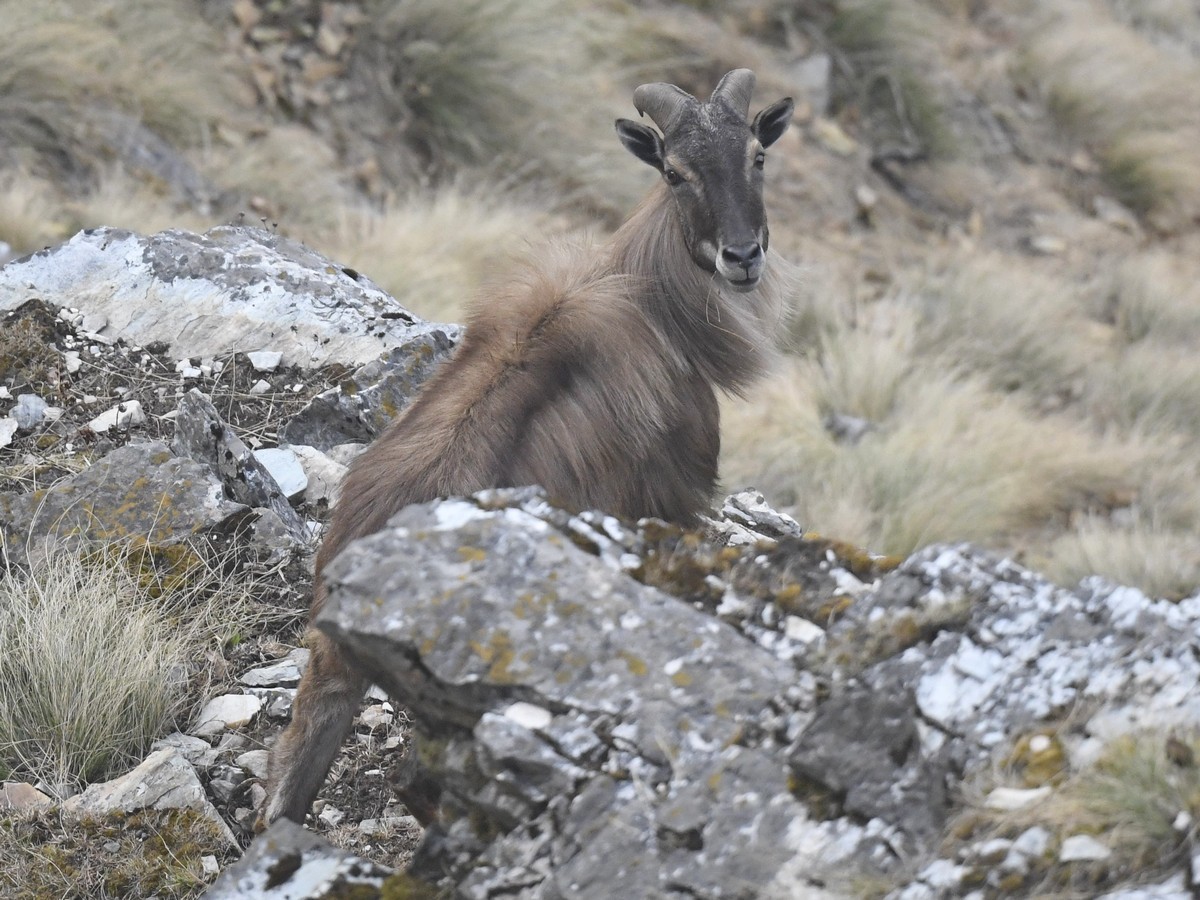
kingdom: Animalia
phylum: Chordata
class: Mammalia
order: Artiodactyla
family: Bovidae
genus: Hemitragus
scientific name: Hemitragus jemlahicus
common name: Himalayan tahr
